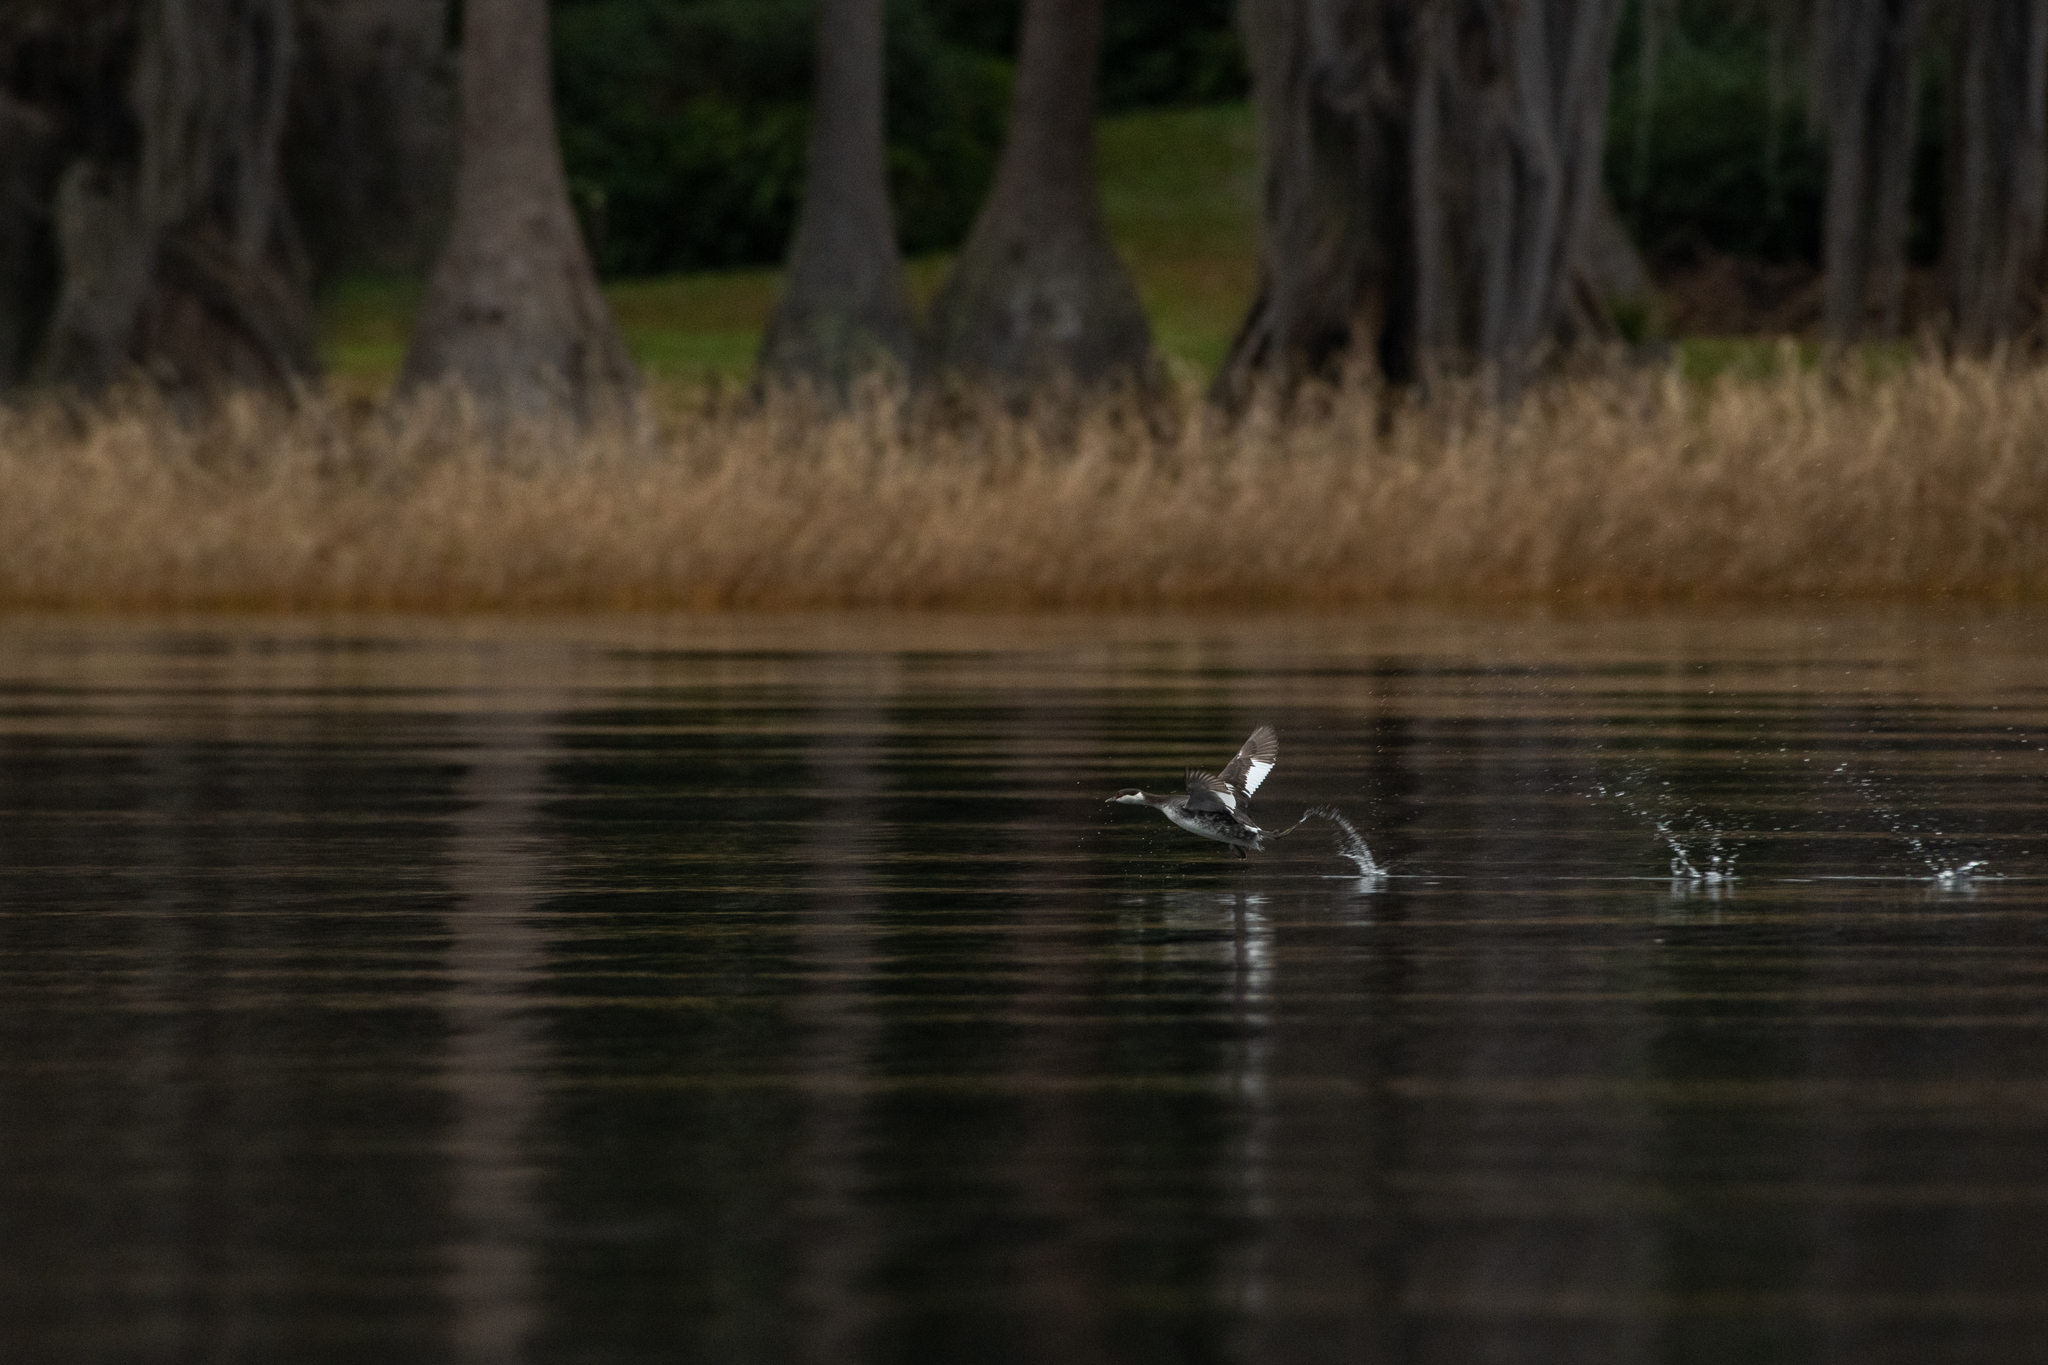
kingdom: Animalia
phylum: Chordata
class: Aves
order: Podicipediformes
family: Podicipedidae
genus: Podiceps
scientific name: Podiceps auritus
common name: Horned grebe
